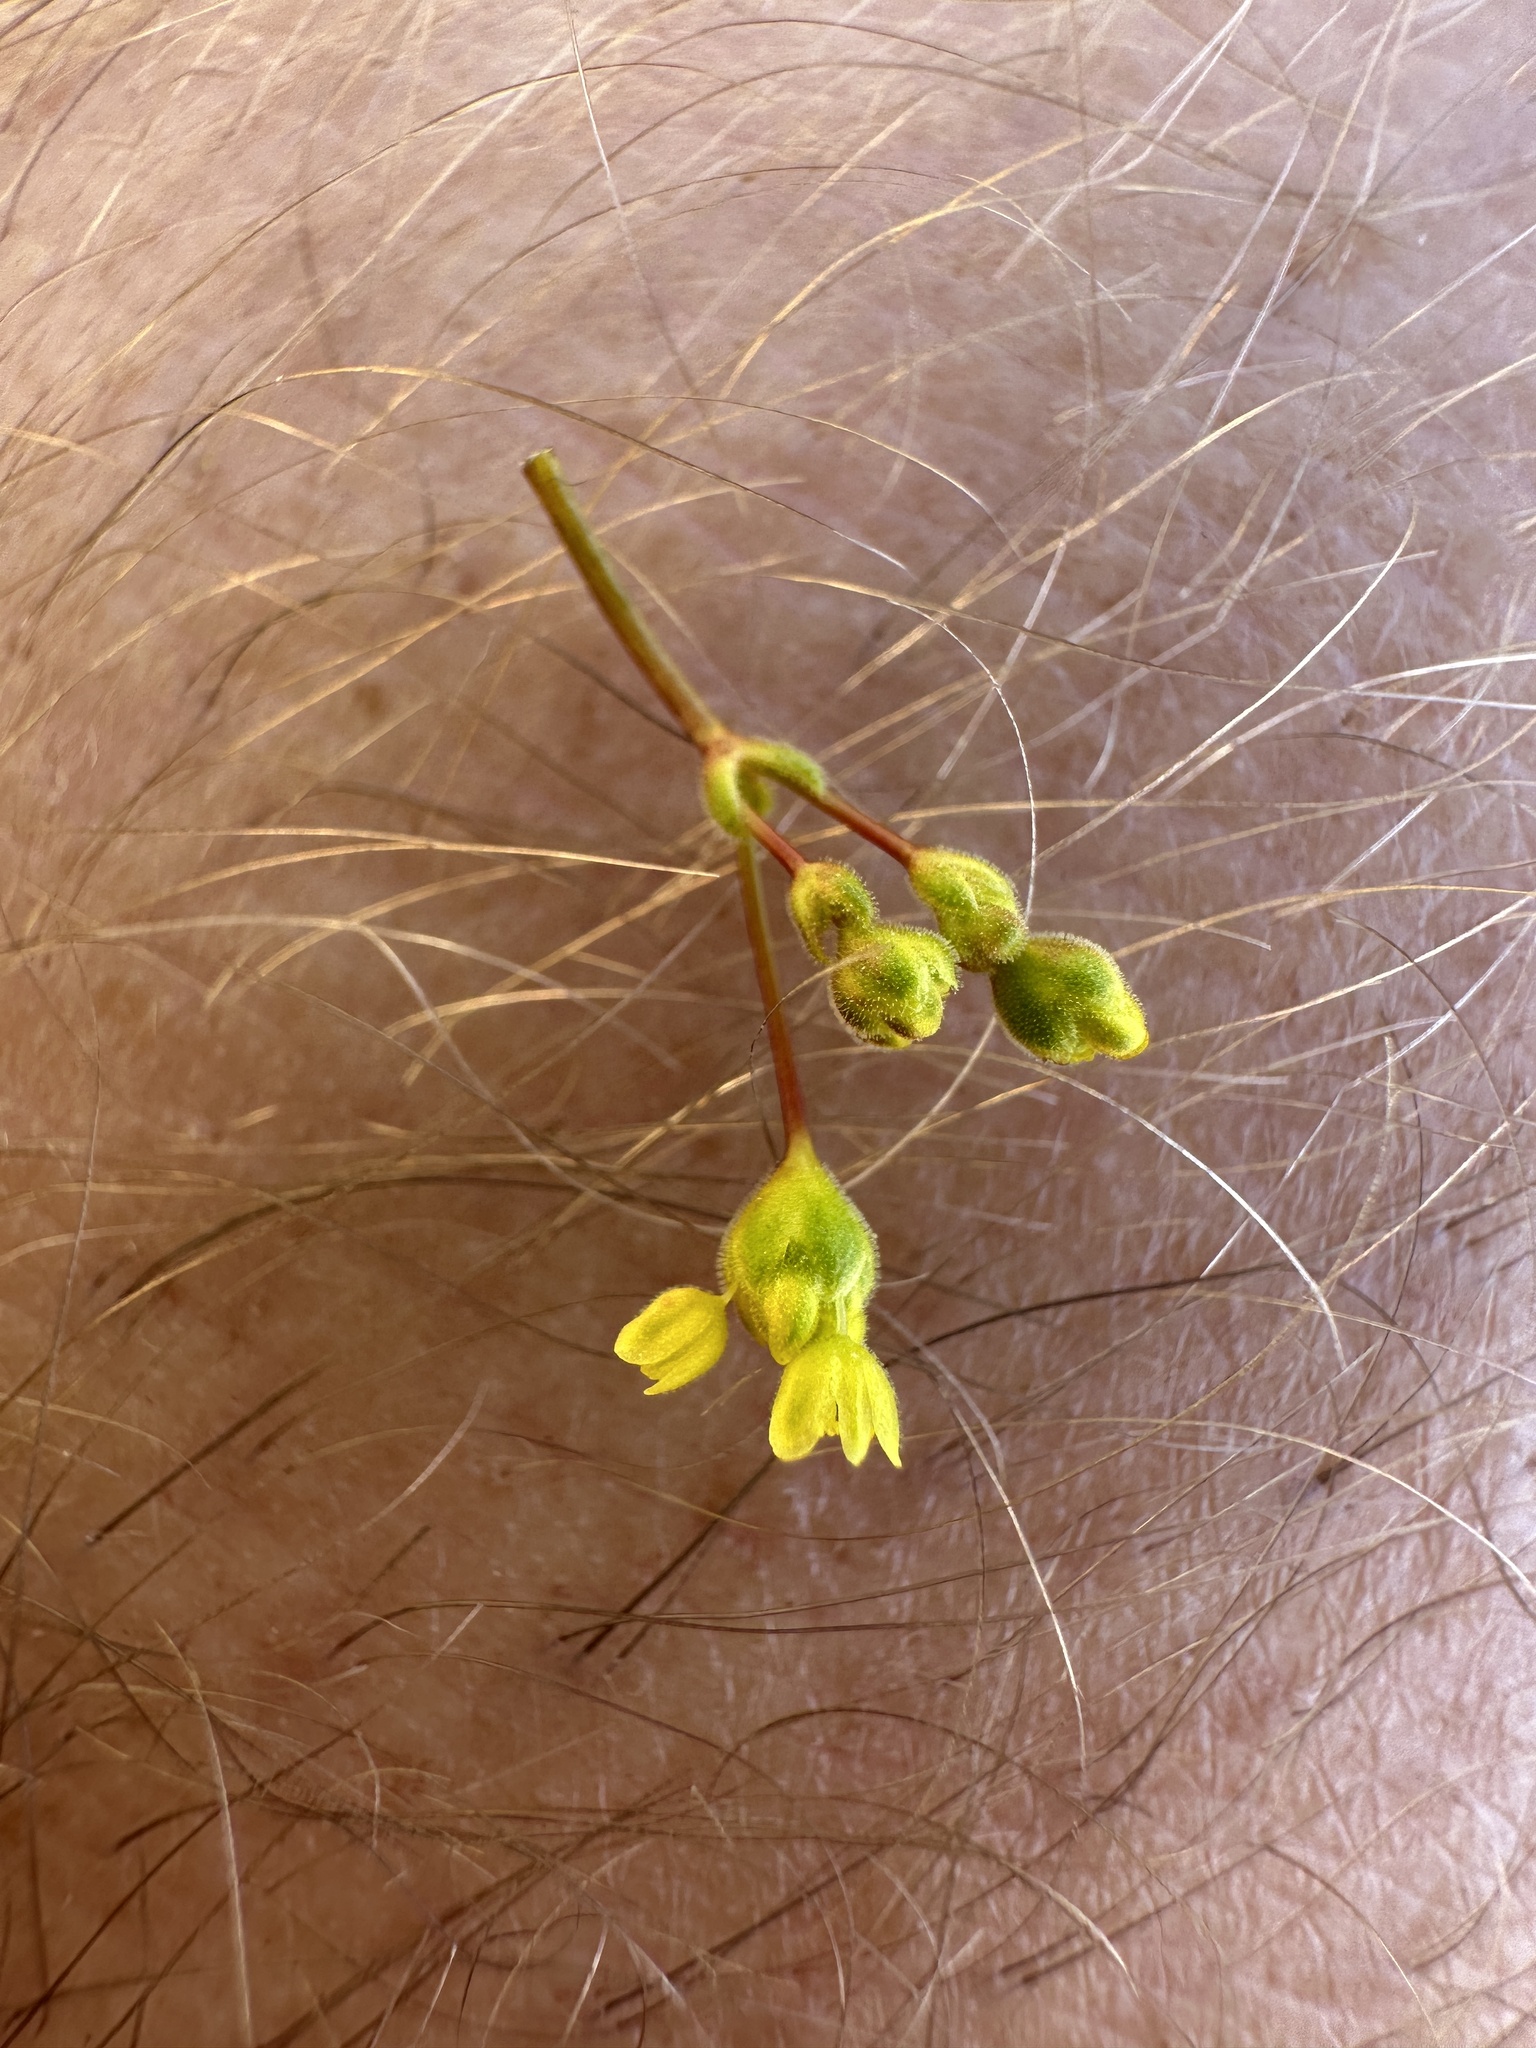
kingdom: Plantae
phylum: Tracheophyta
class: Magnoliopsida
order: Caryophyllales
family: Polygonaceae
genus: Eriogonum
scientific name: Eriogonum pusillum
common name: Yellow turbans
